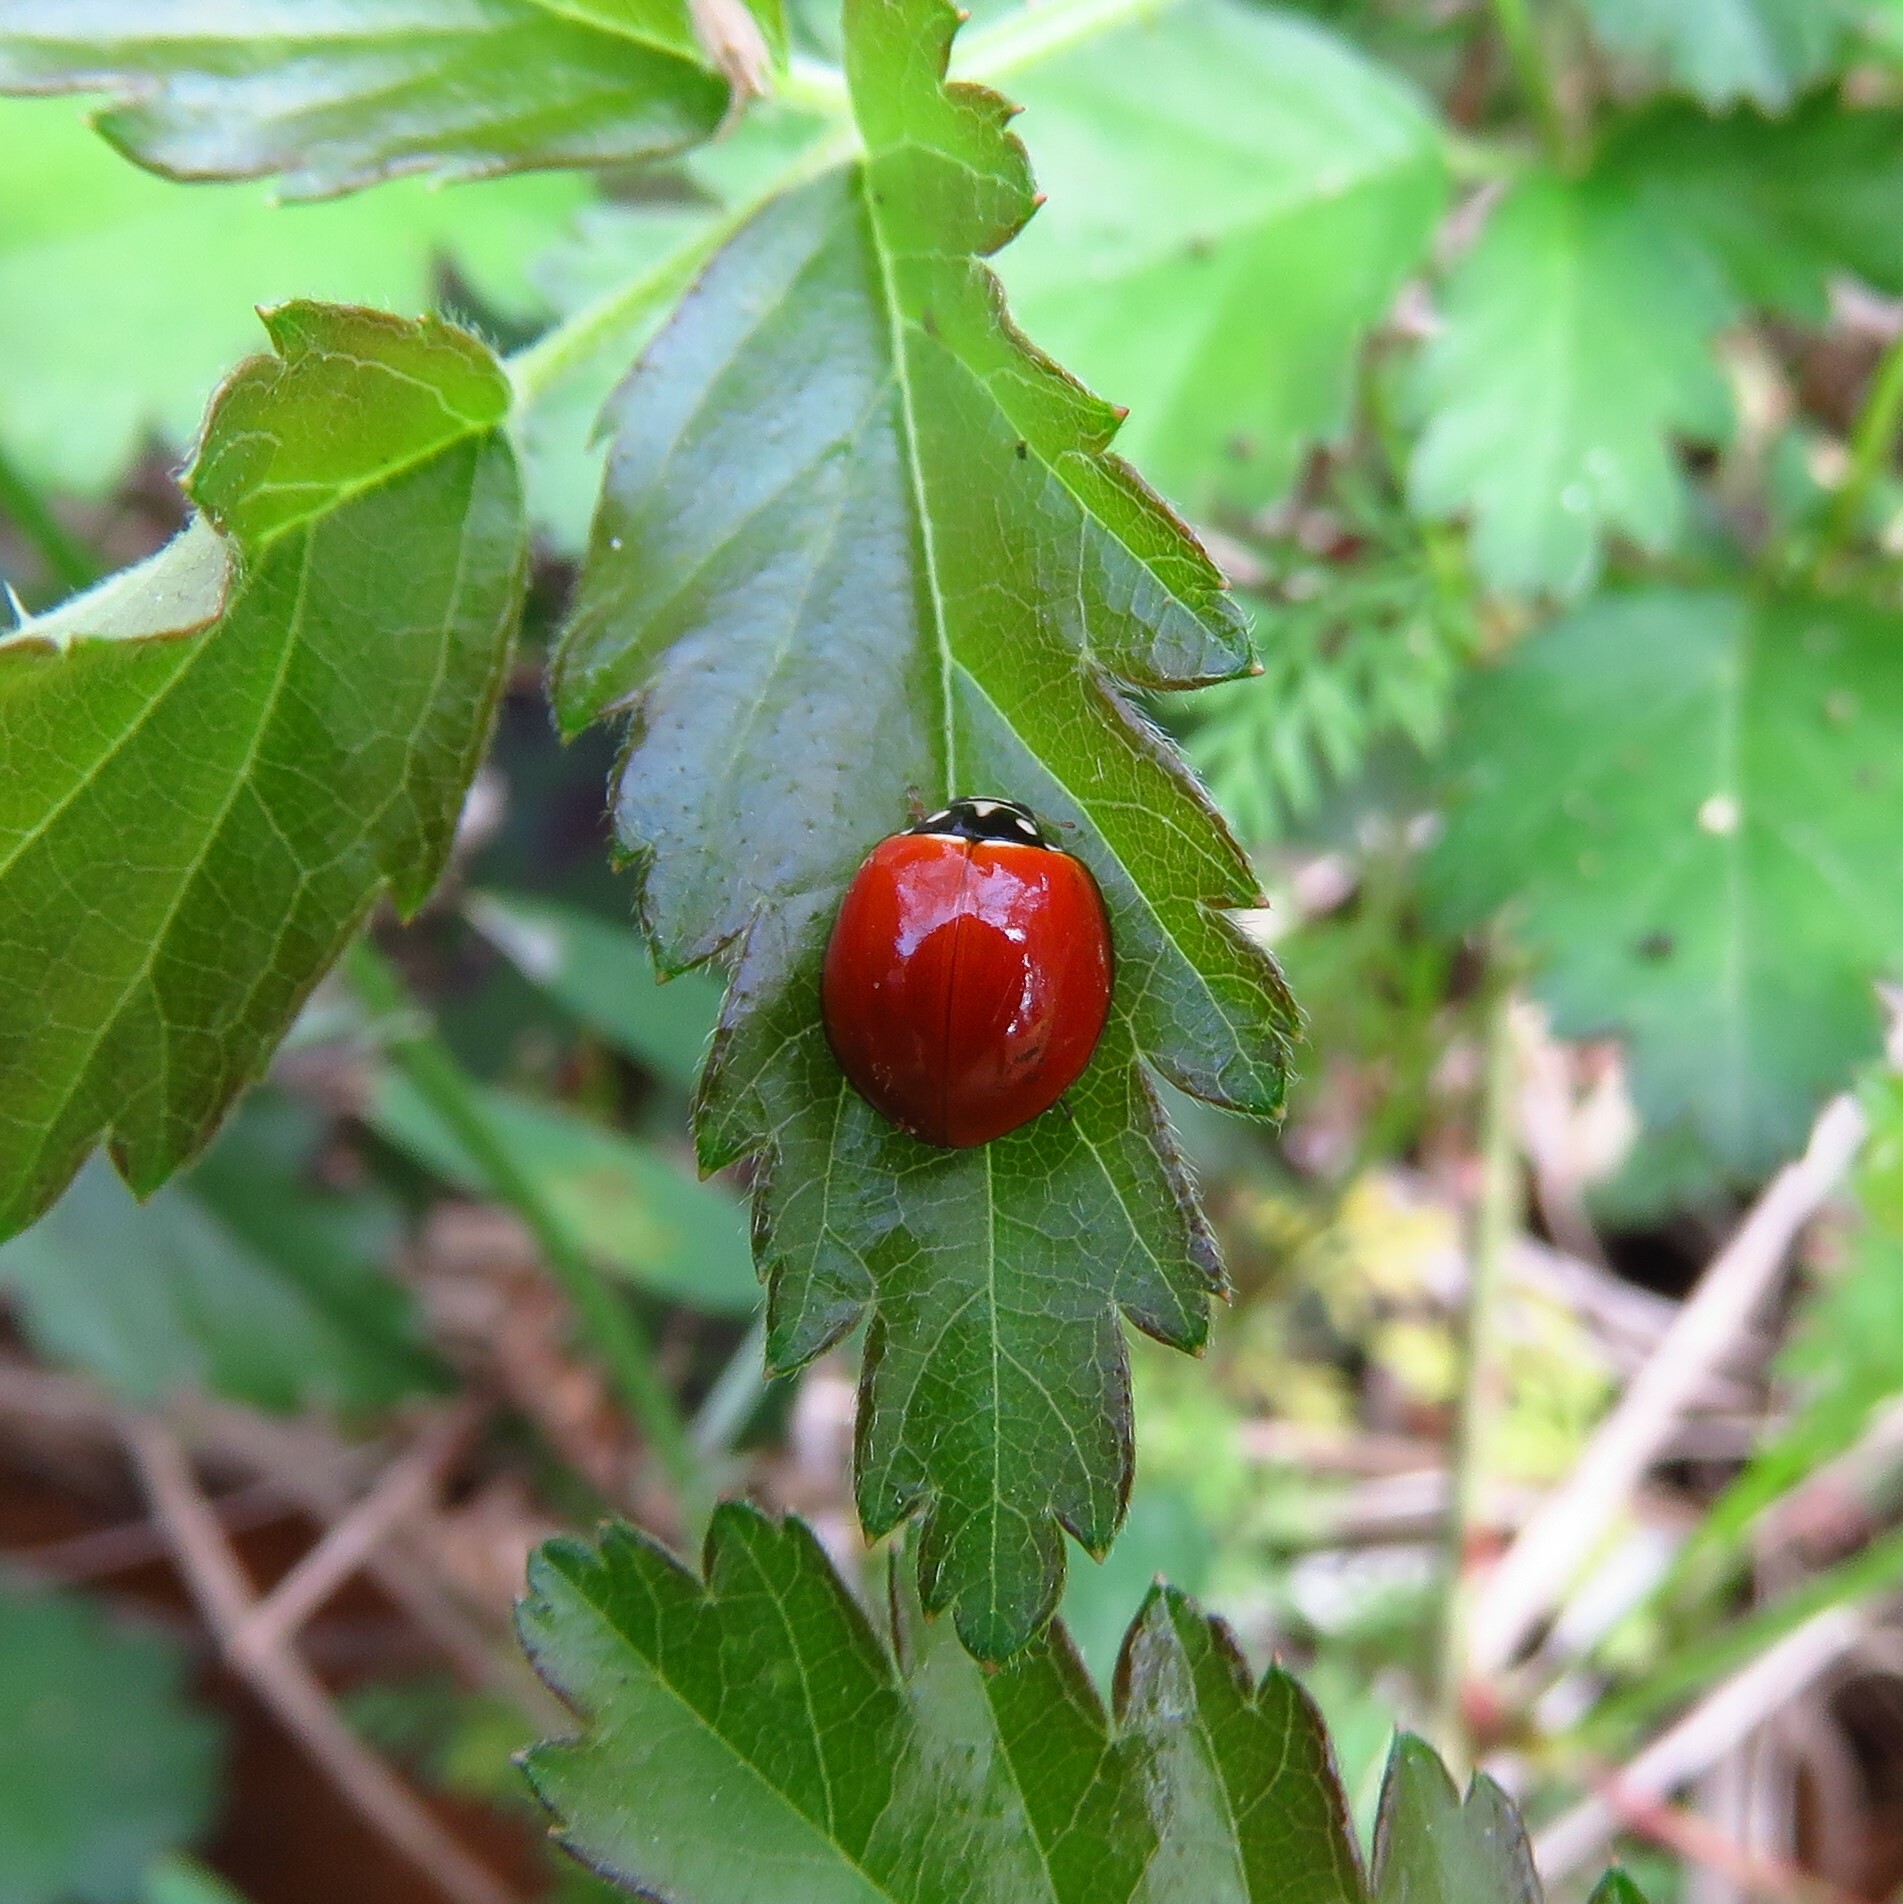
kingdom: Animalia
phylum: Arthropoda
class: Insecta
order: Coleoptera
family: Coccinellidae
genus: Cycloneda
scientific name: Cycloneda sanguinea
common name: Ladybird beetle
